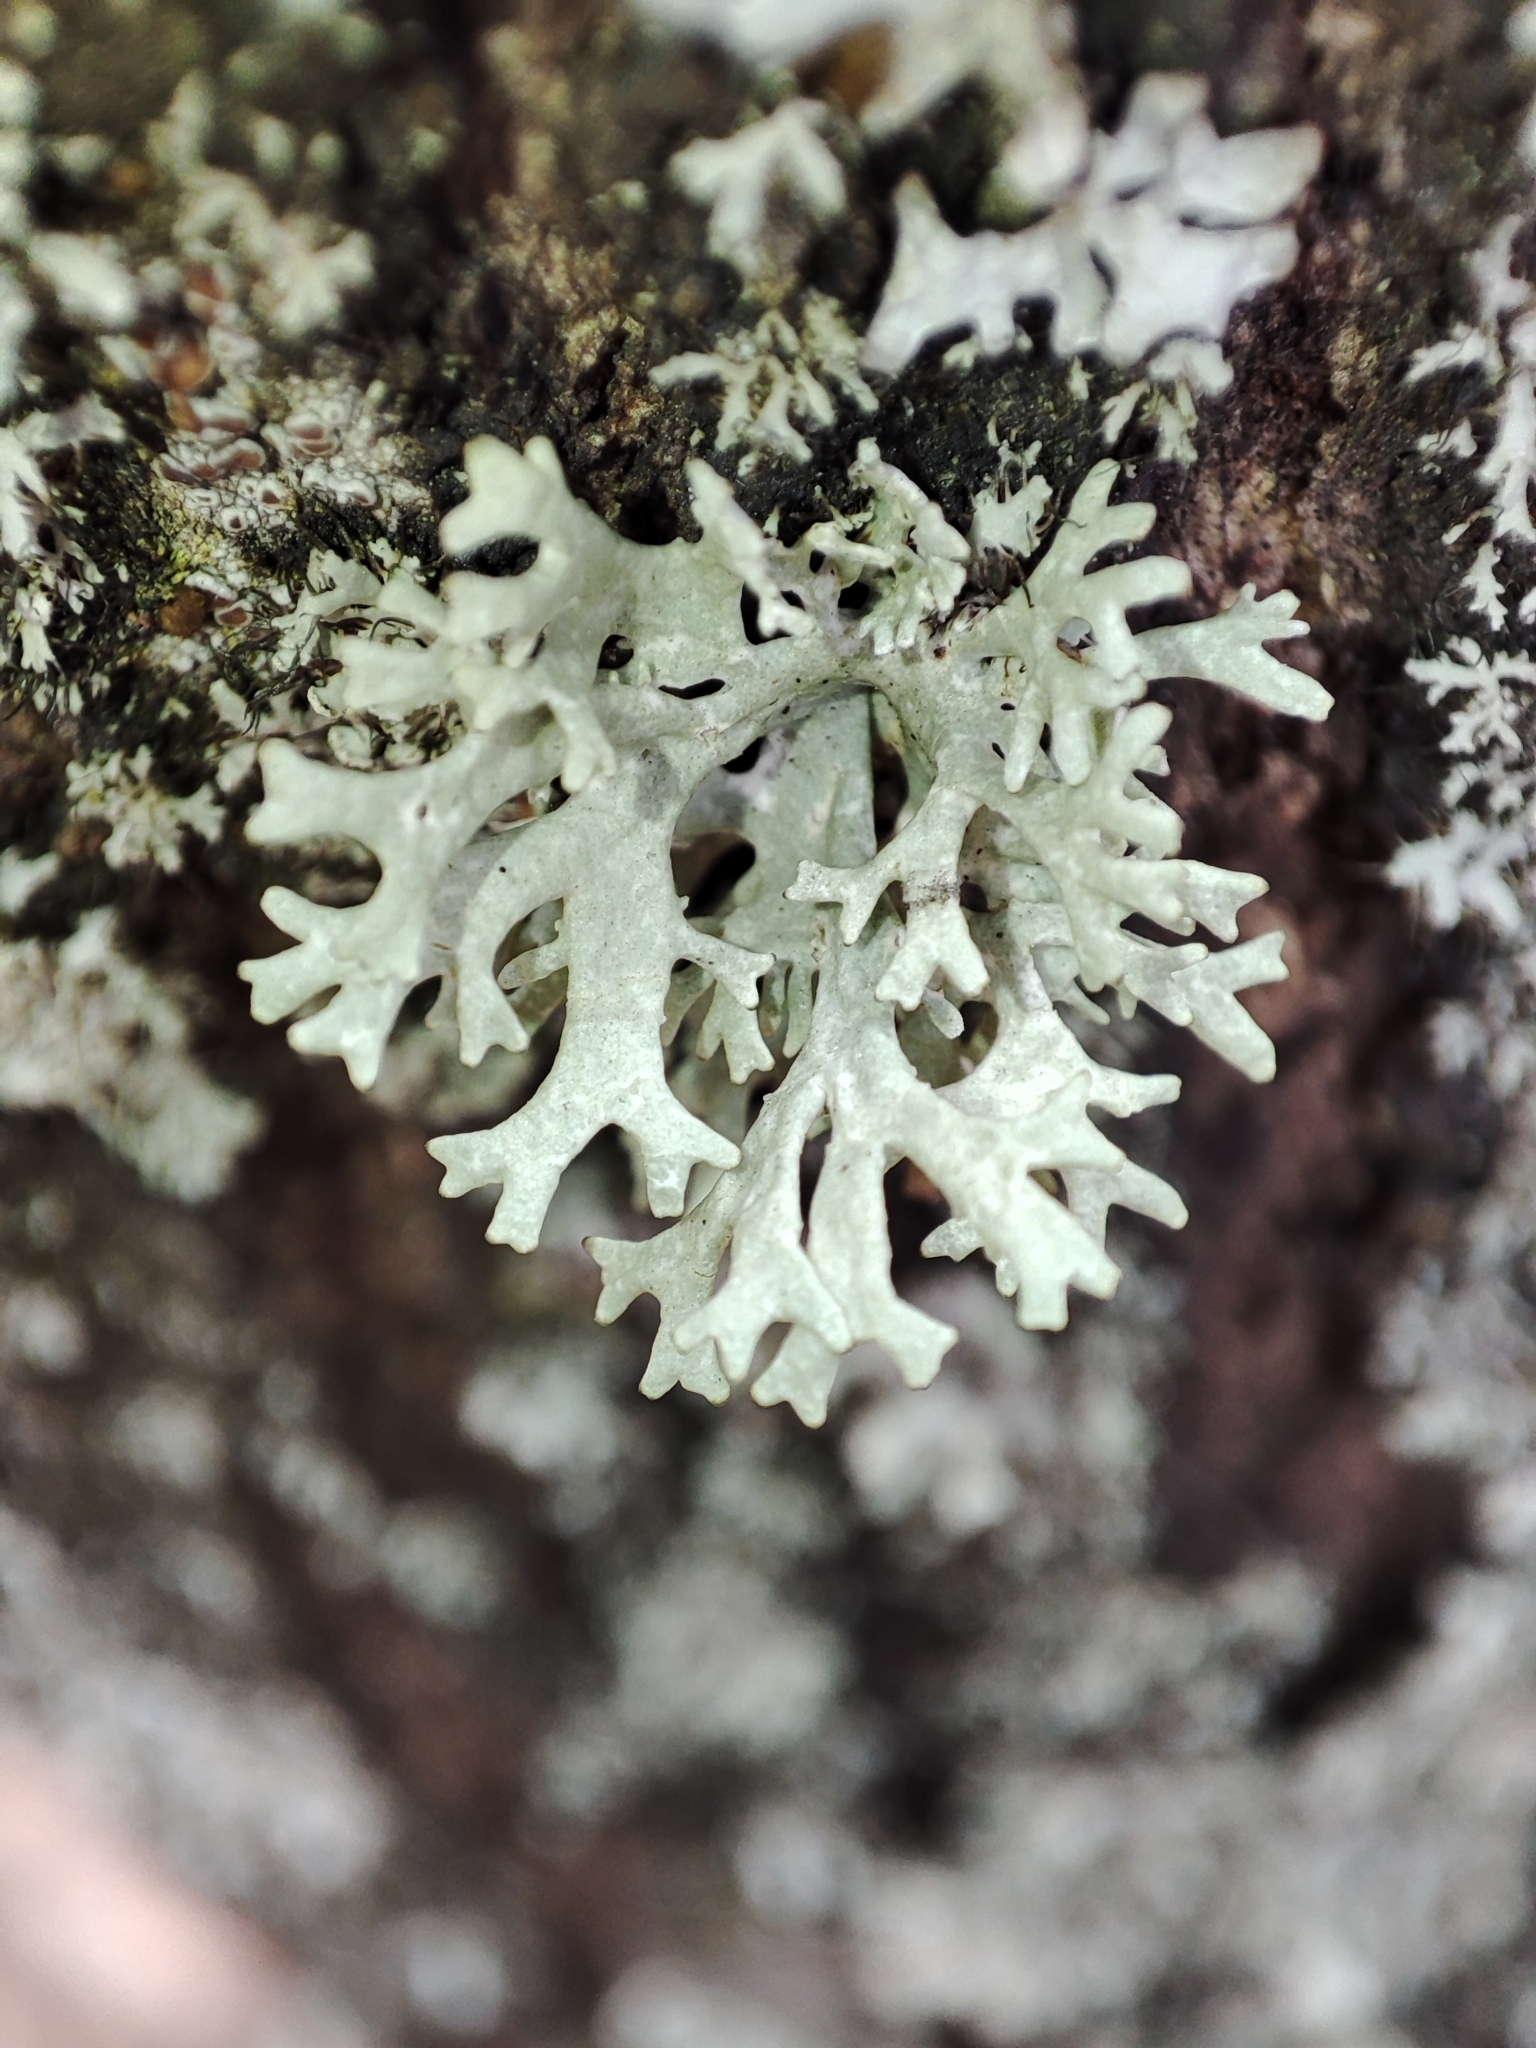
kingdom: Fungi
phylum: Ascomycota
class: Lecanoromycetes
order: Lecanorales
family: Parmeliaceae
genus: Evernia
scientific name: Evernia prunastri
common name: Oak moss
